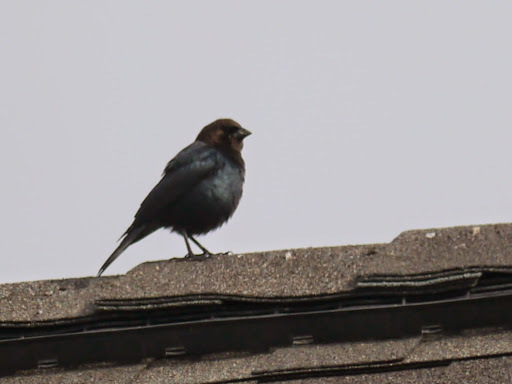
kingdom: Animalia
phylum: Chordata
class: Aves
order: Passeriformes
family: Icteridae
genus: Molothrus
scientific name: Molothrus ater
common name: Brown-headed cowbird
